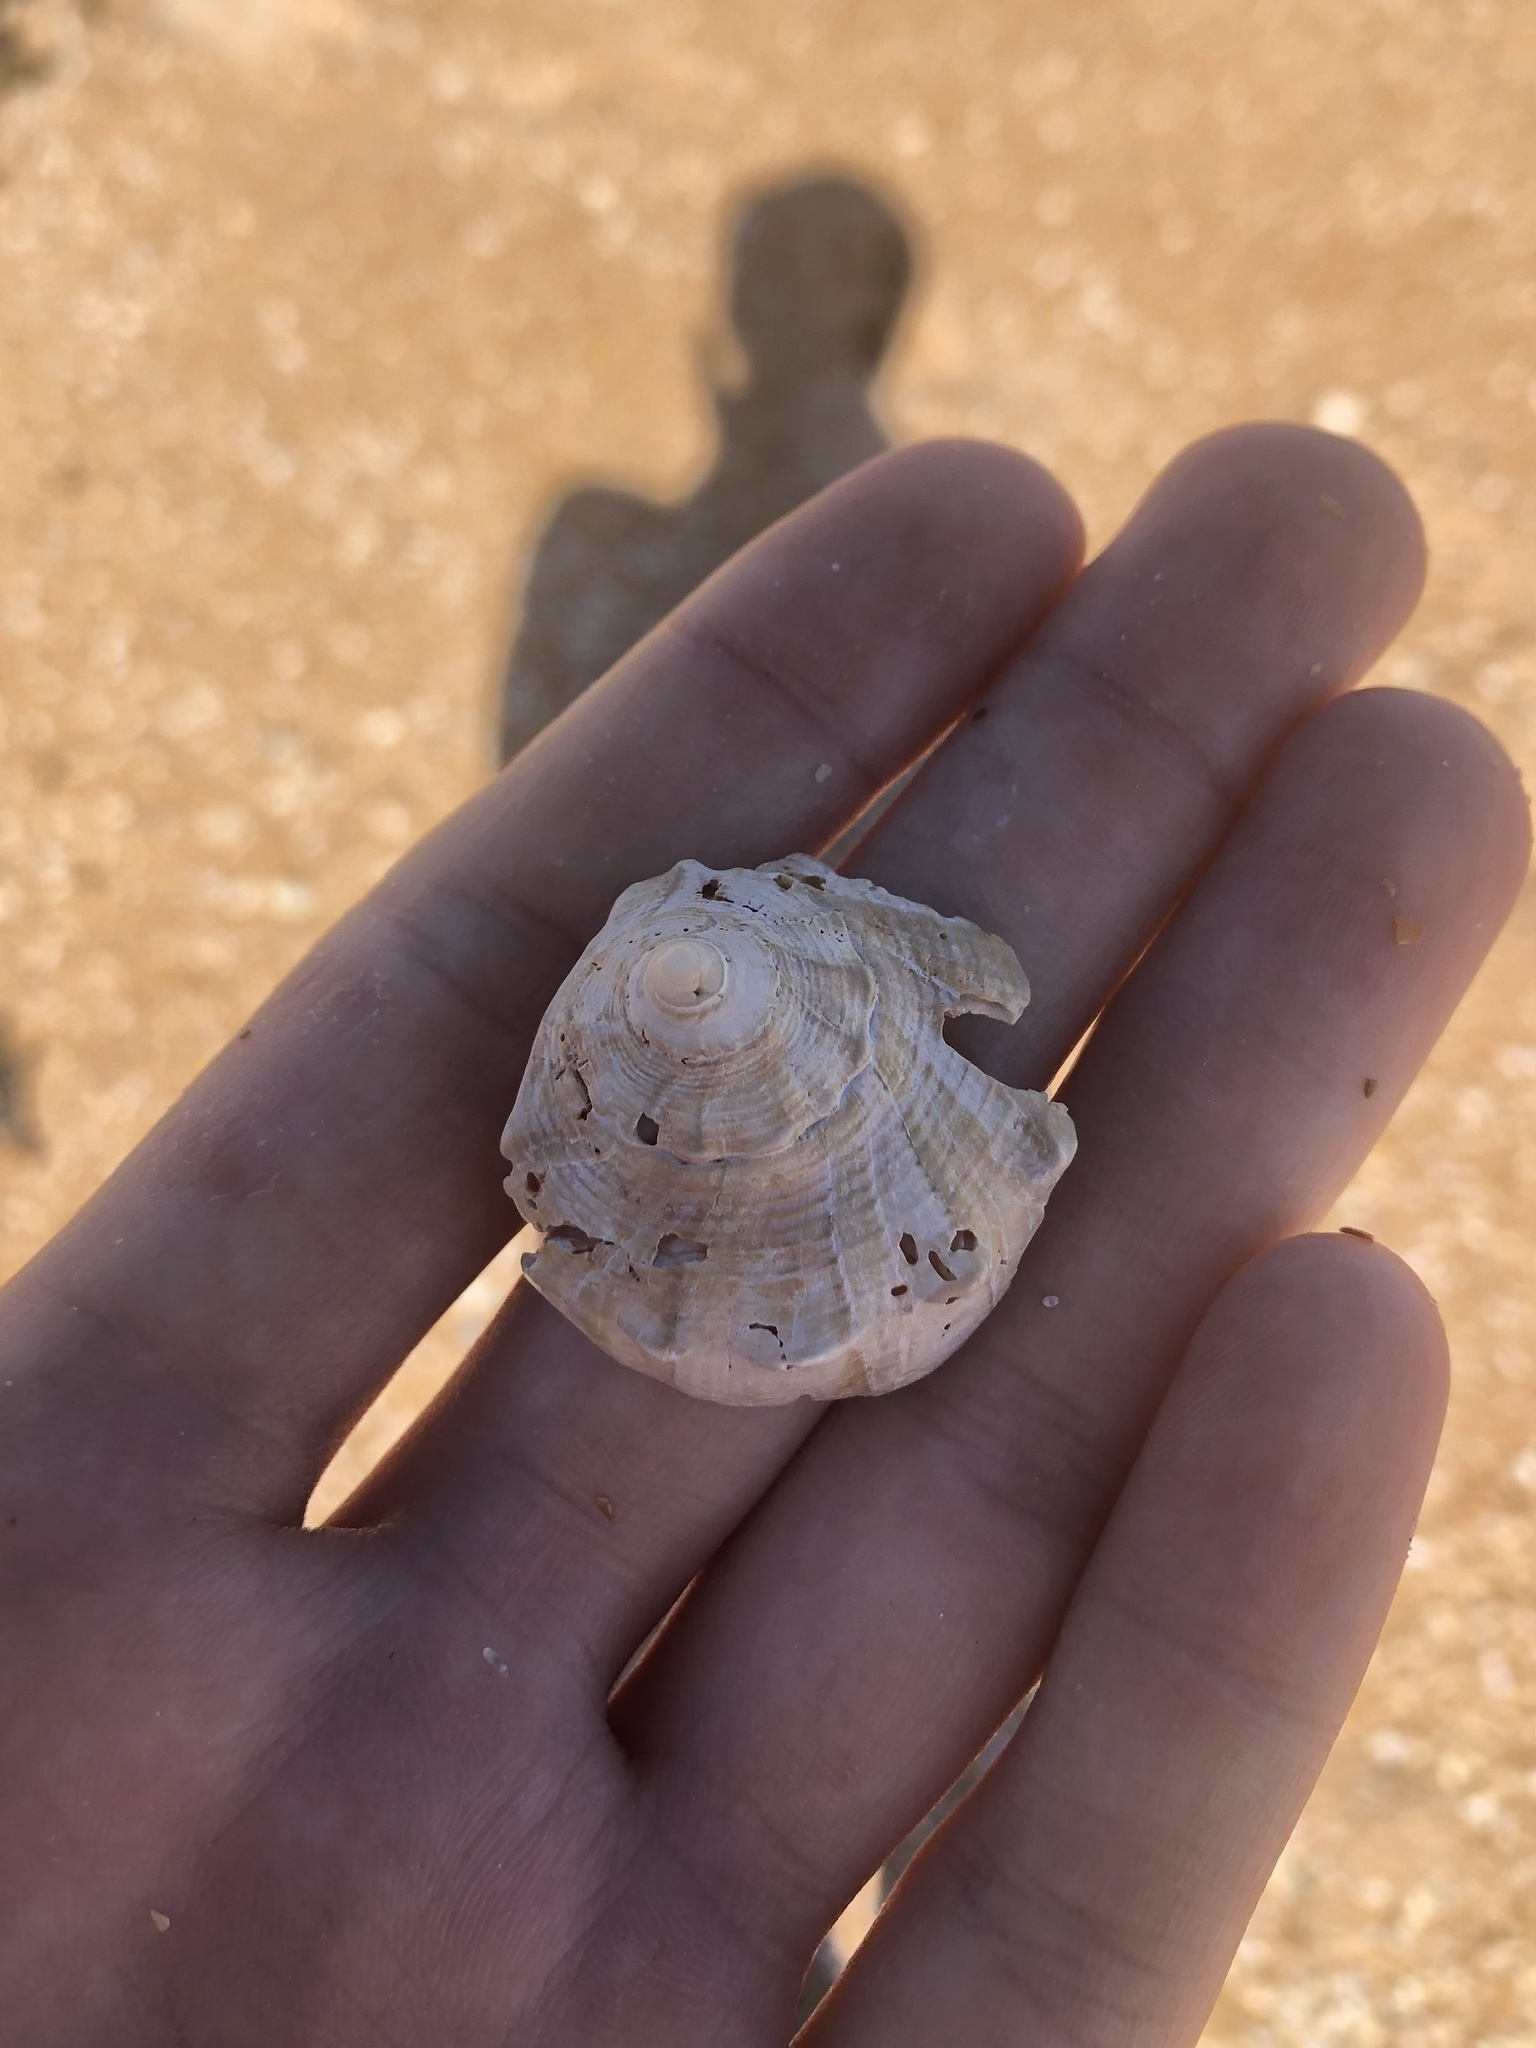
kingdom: Animalia
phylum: Mollusca
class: Gastropoda
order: Neogastropoda
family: Busyconidae
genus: Sinistrofulgur
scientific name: Sinistrofulgur sinistrum
